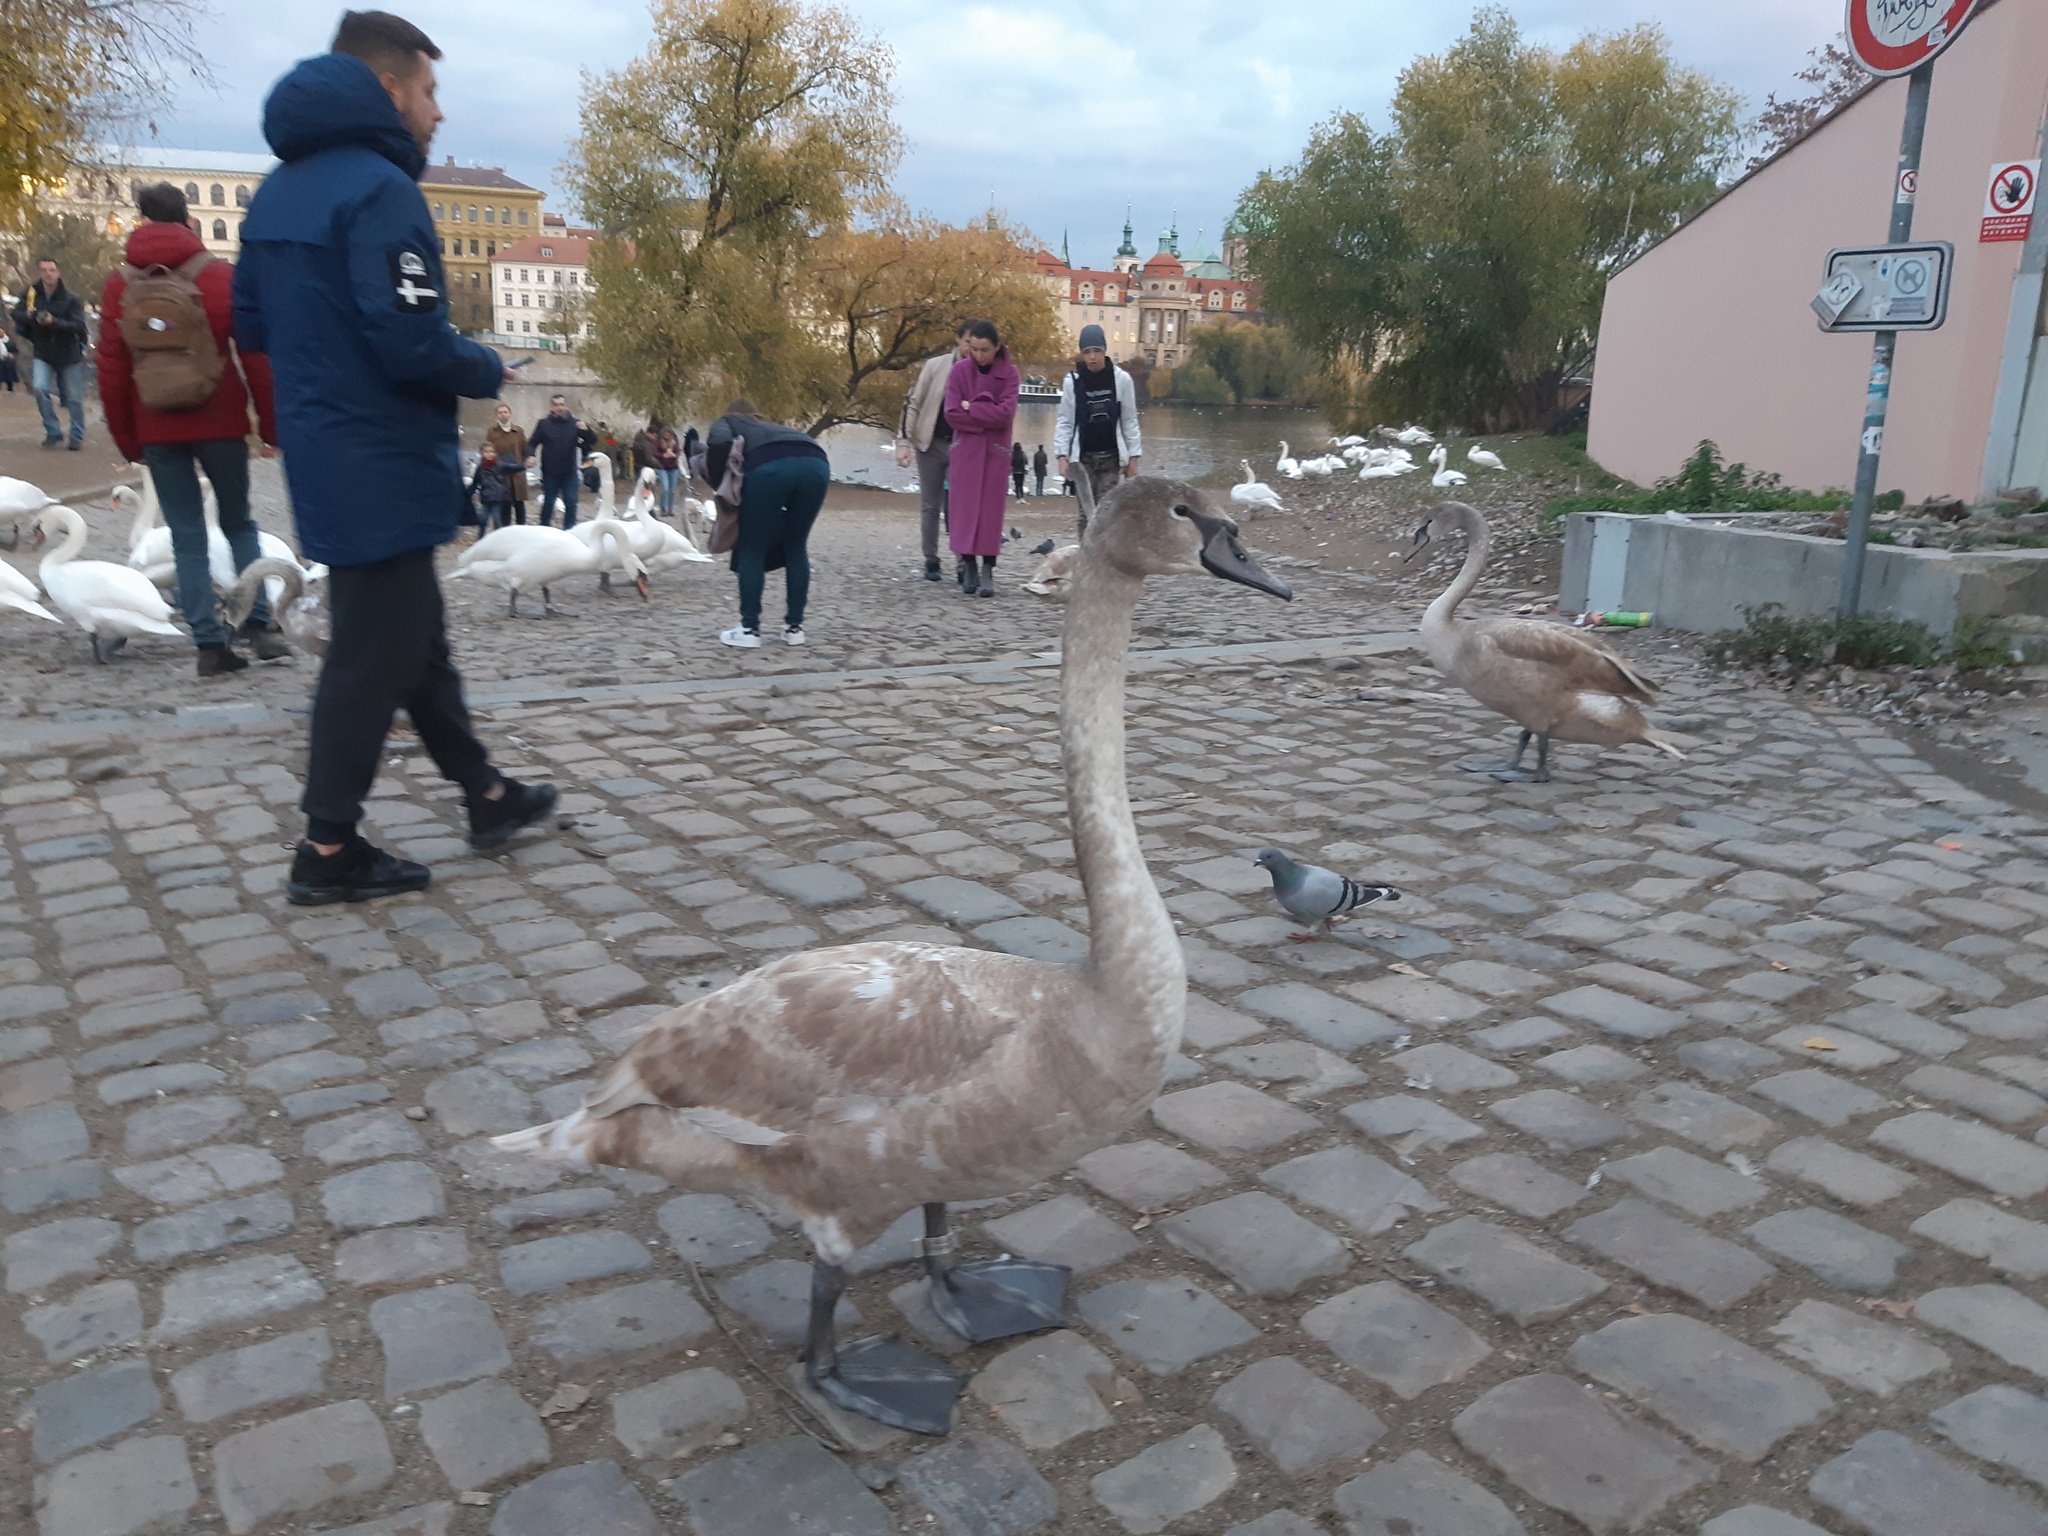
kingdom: Animalia
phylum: Chordata
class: Aves
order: Anseriformes
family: Anatidae
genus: Cygnus
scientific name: Cygnus olor
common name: Mute swan
